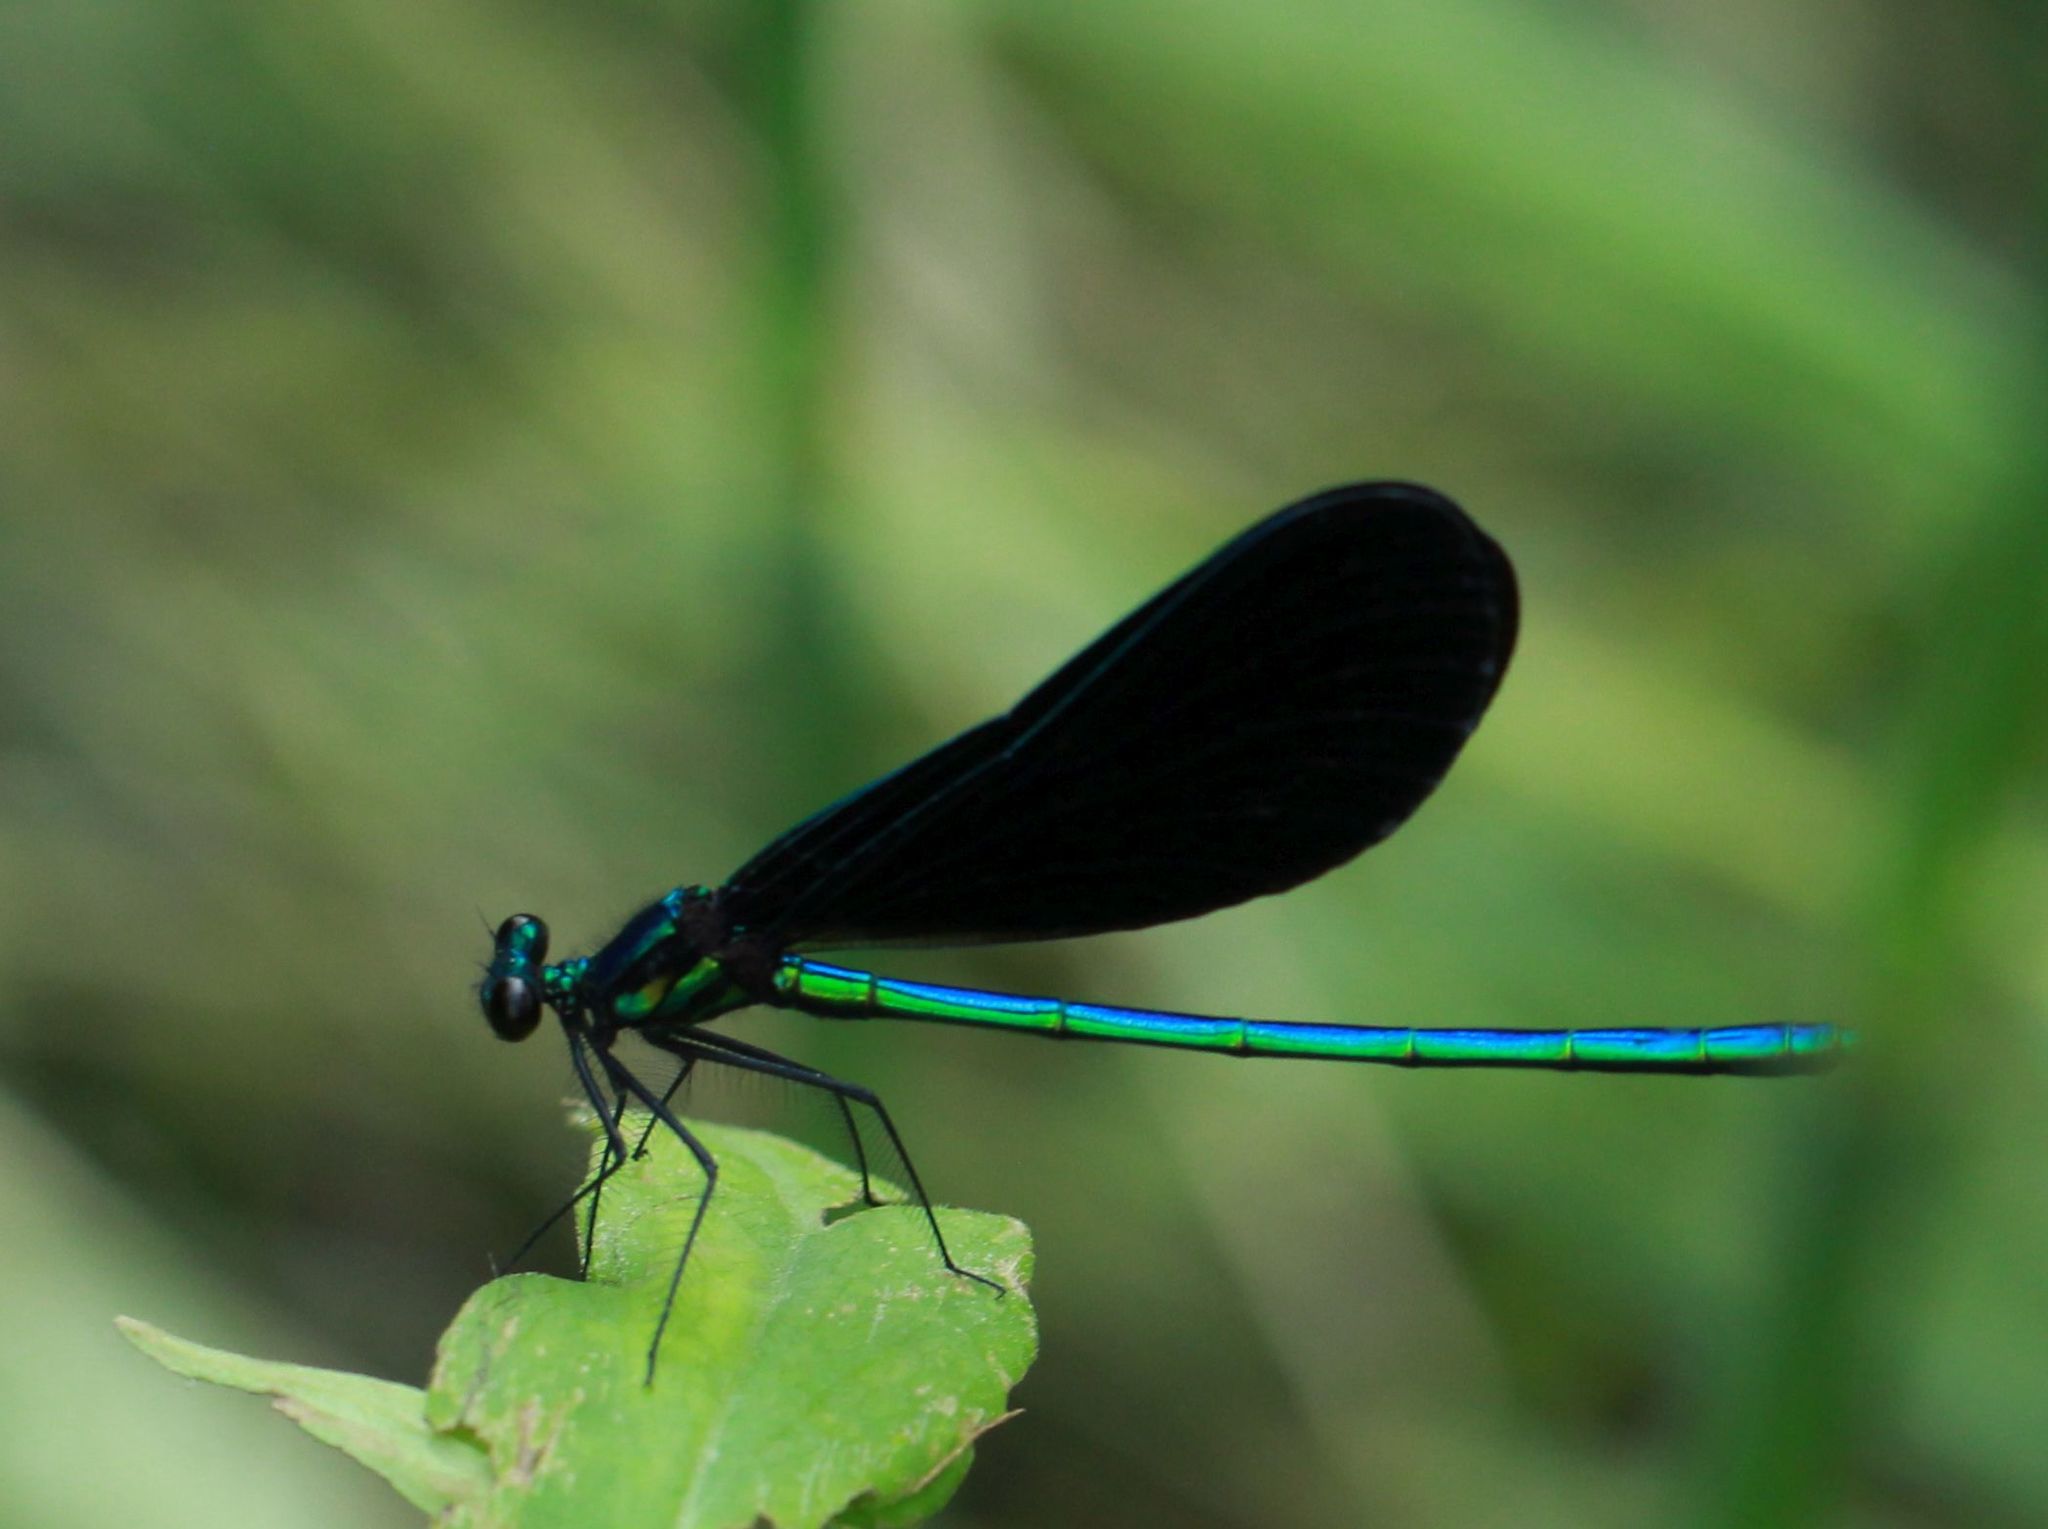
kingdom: Animalia
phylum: Arthropoda
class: Insecta
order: Odonata
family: Calopterygidae
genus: Calopteryx
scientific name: Calopteryx maculata
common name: Ebony jewelwing
